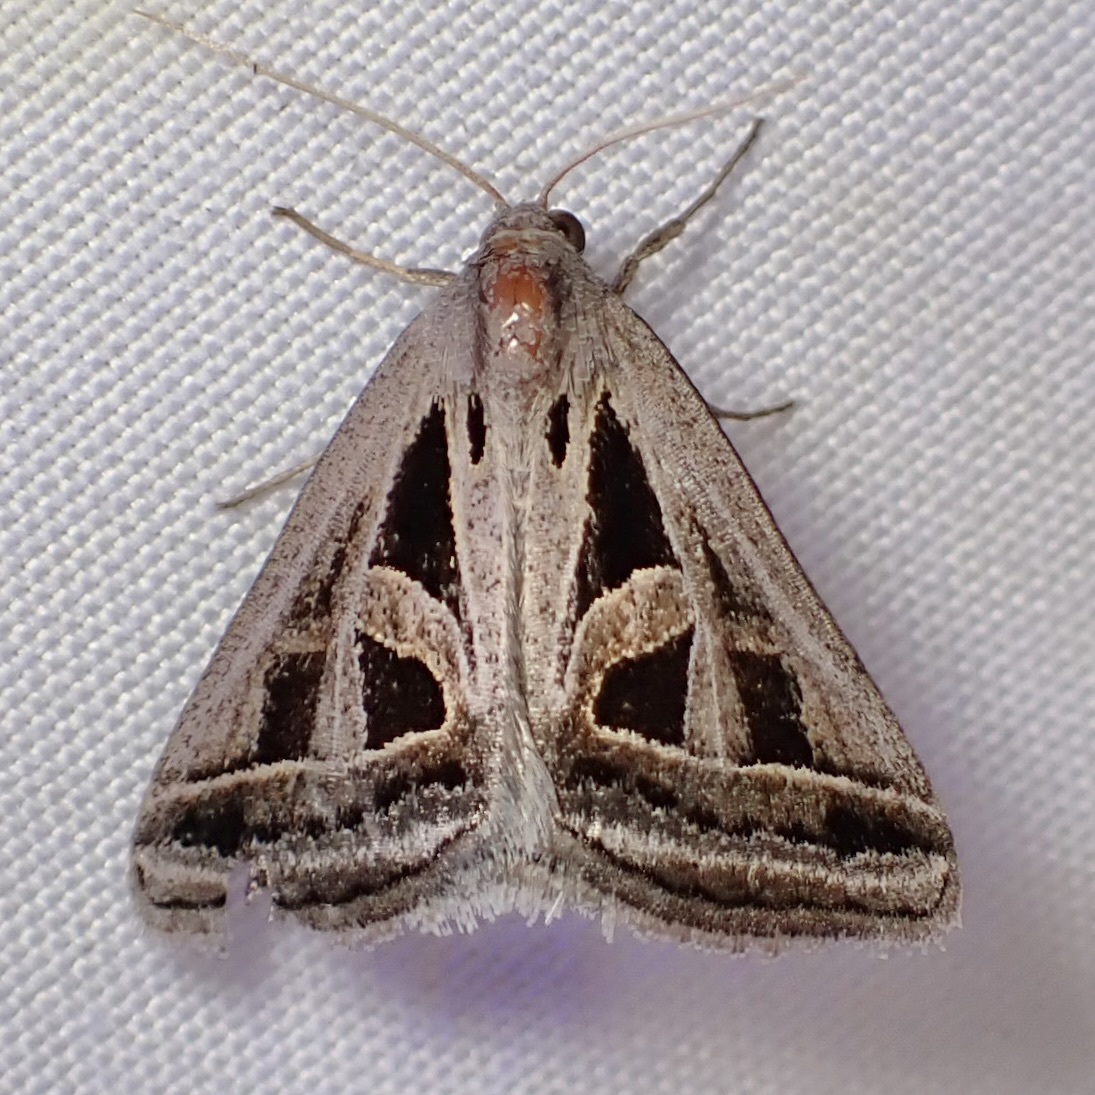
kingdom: Animalia
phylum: Arthropoda
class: Insecta
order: Lepidoptera
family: Erebidae
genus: Callistege
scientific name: Callistege diagonalis
